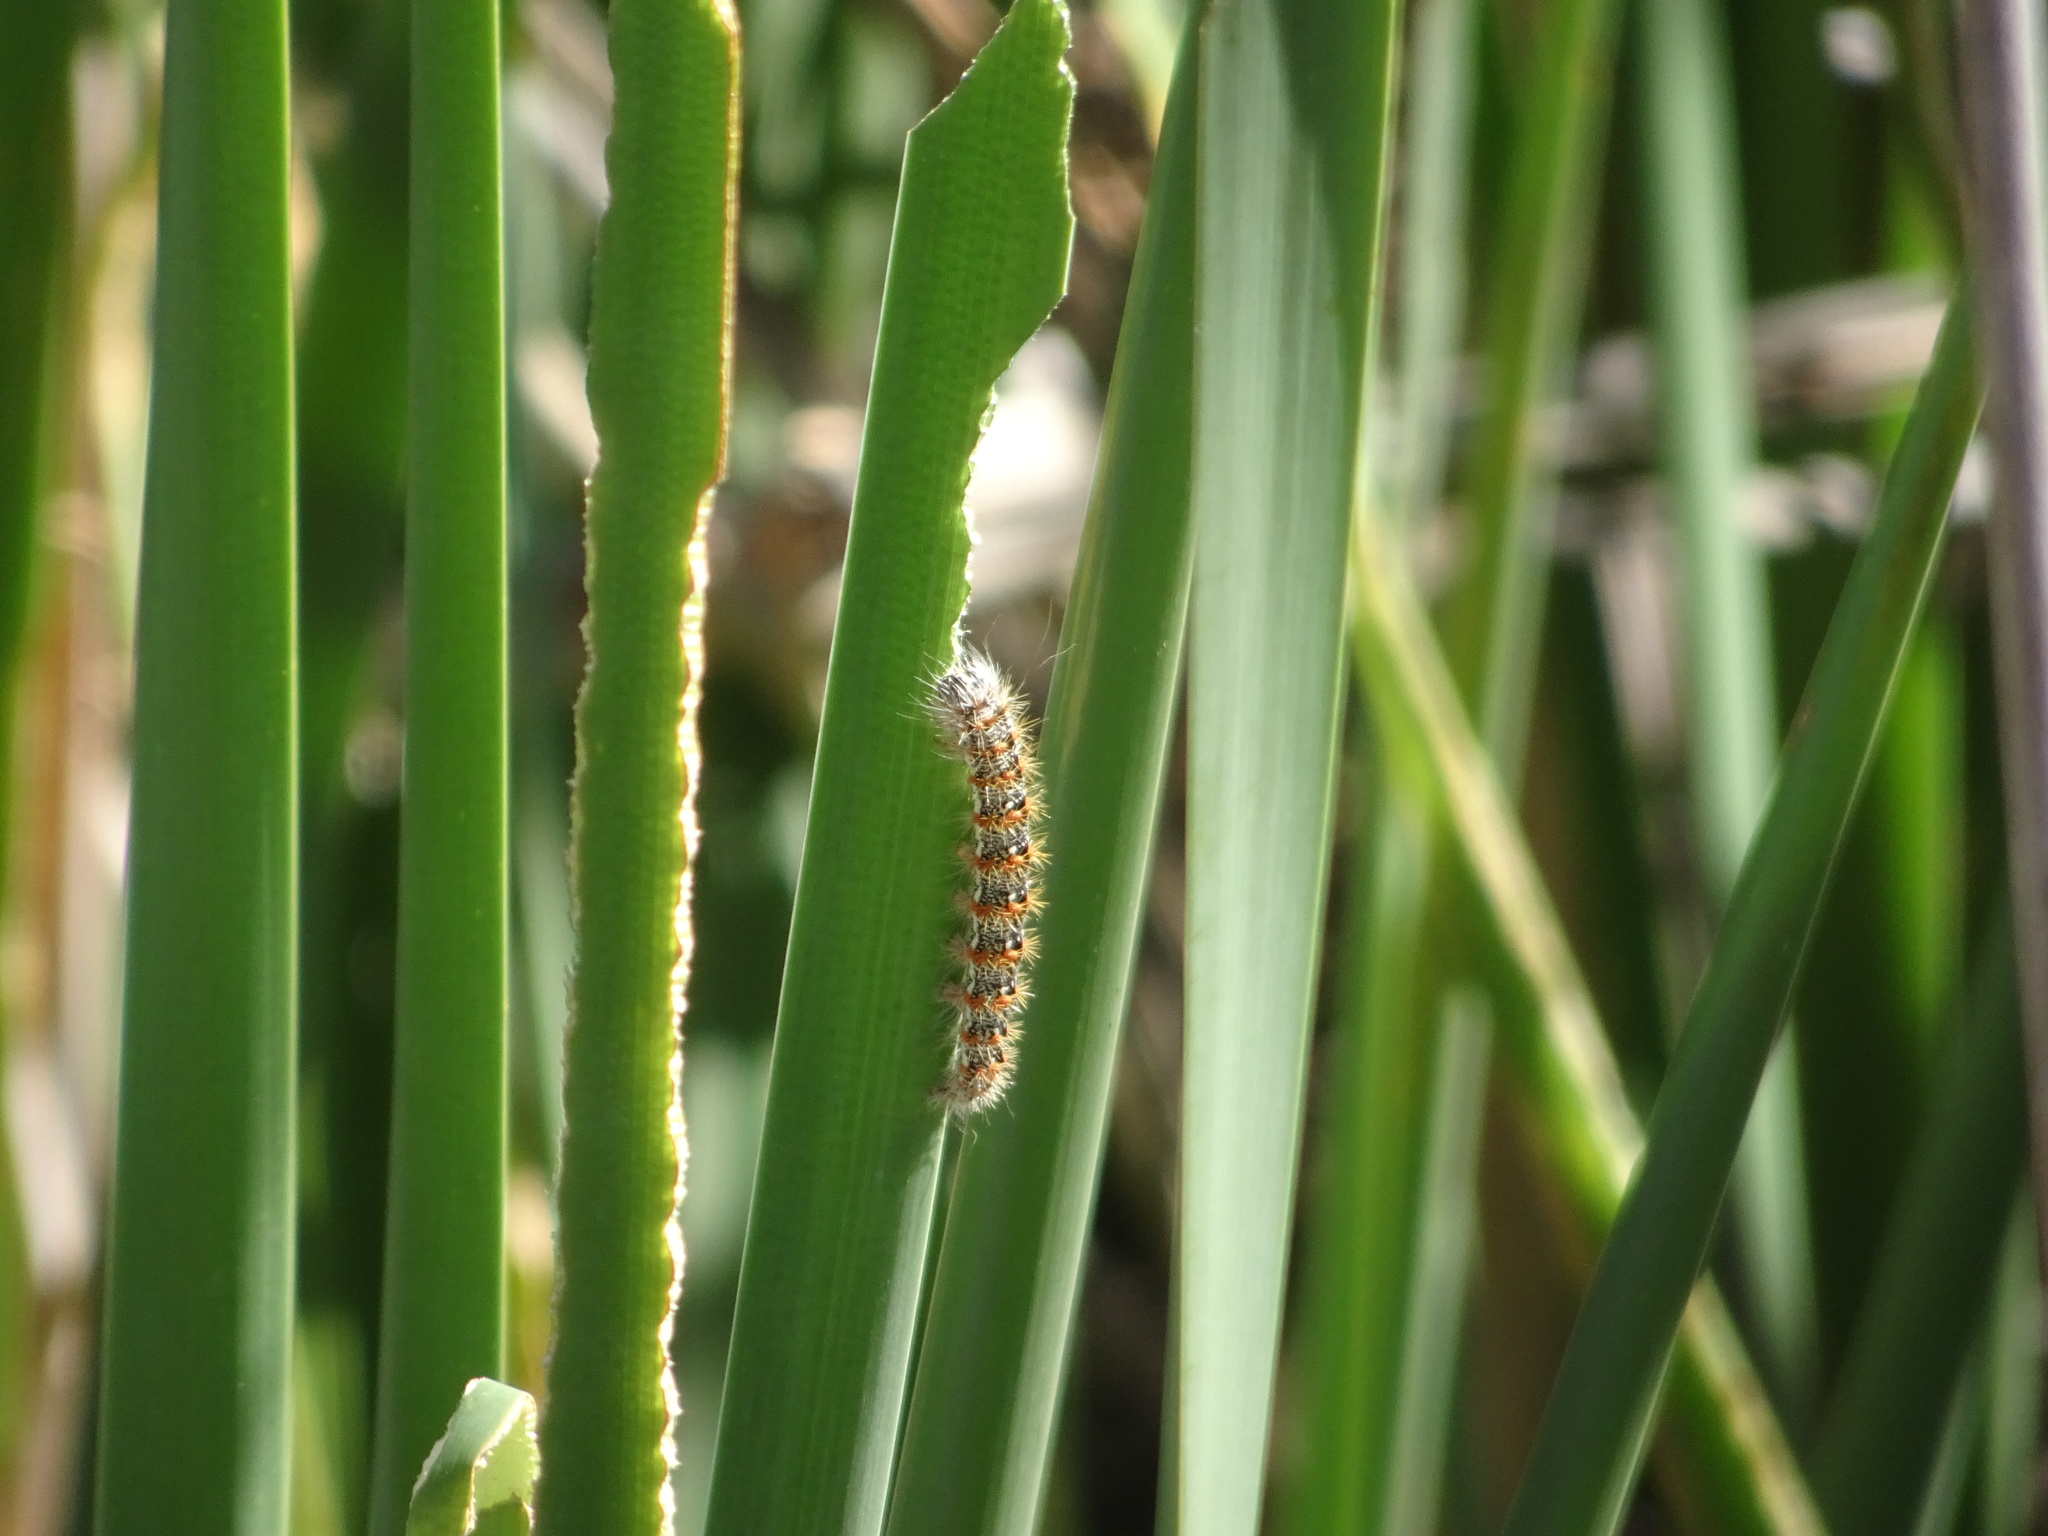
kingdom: Animalia
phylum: Arthropoda
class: Insecta
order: Lepidoptera
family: Noctuidae
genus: Acronicta
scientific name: Acronicta insularis
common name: Henry's marsh moth
